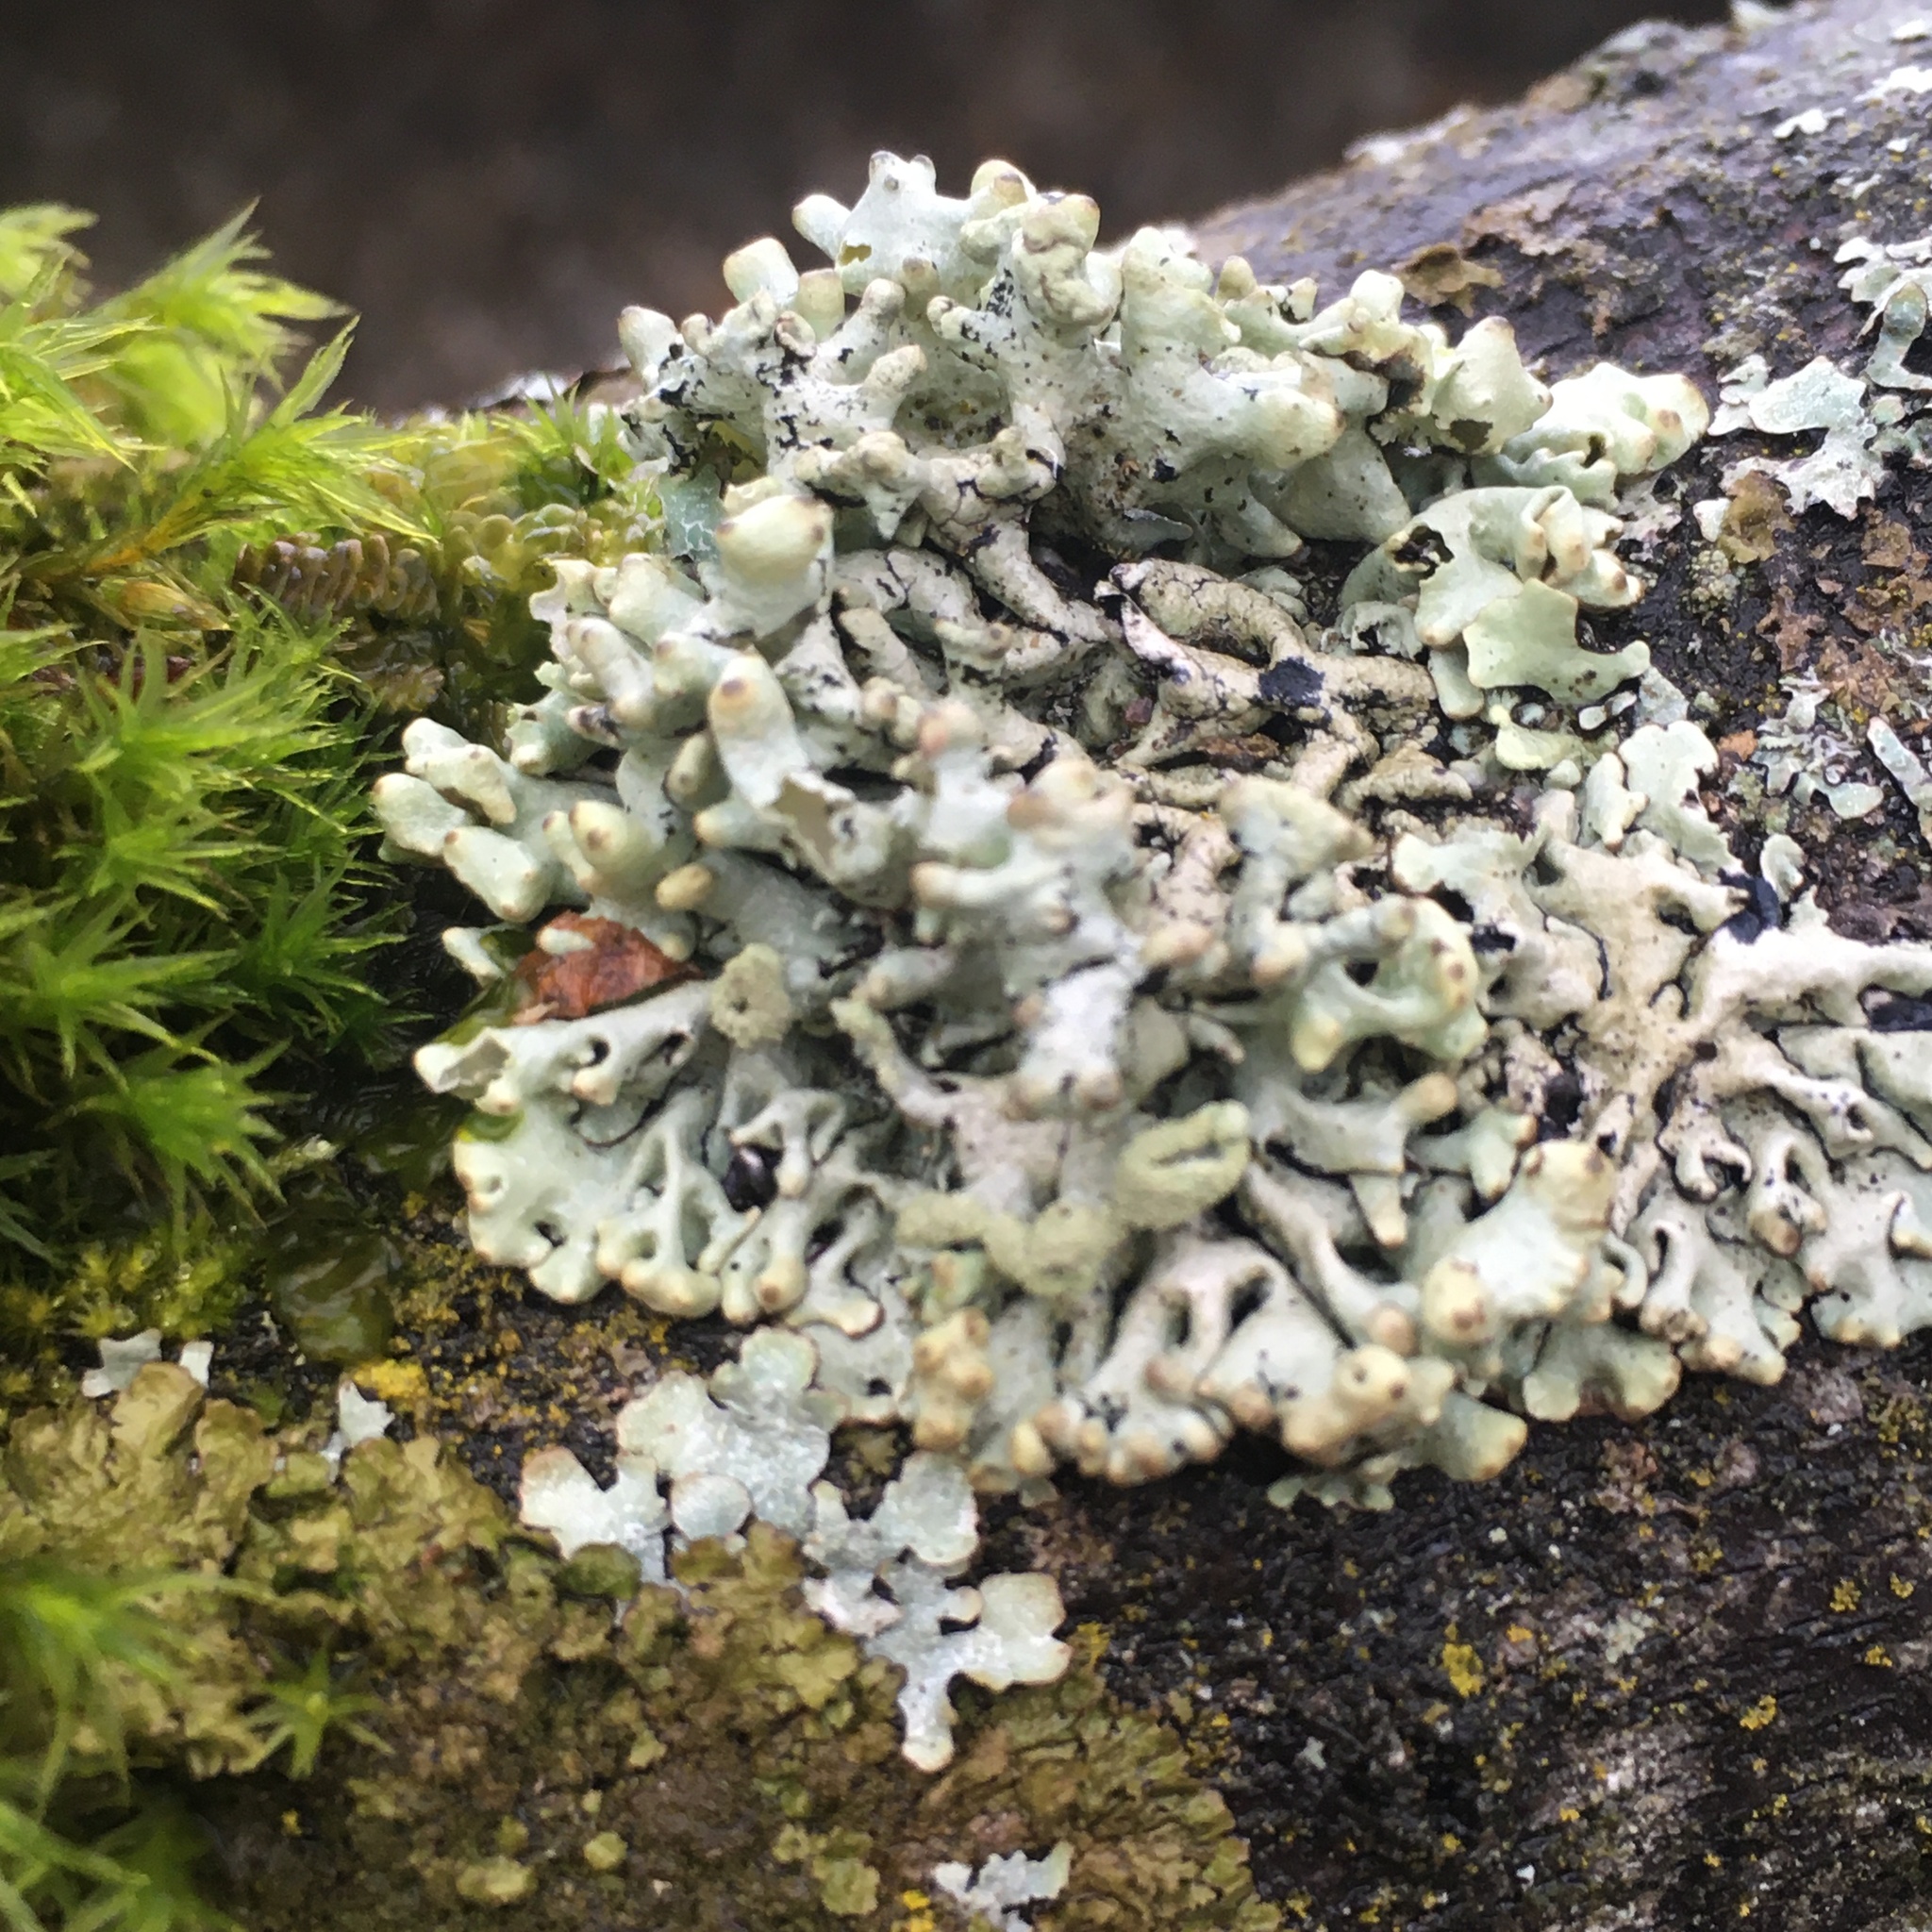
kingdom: Fungi
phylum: Ascomycota
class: Lecanoromycetes
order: Lecanorales
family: Parmeliaceae
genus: Hypogymnia
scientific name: Hypogymnia tubulosa
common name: Powder-headed tube lichen
